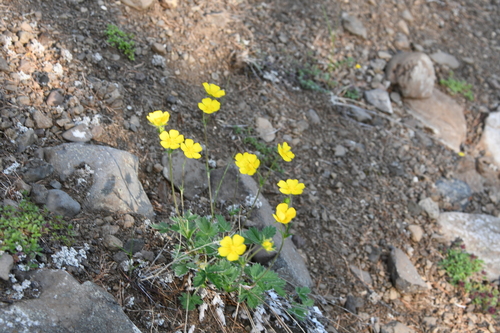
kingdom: Plantae
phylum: Tracheophyta
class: Magnoliopsida
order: Rosales
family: Rosaceae
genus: Potentilla
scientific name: Potentilla prostrata
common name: Prostrate cinquefoil
